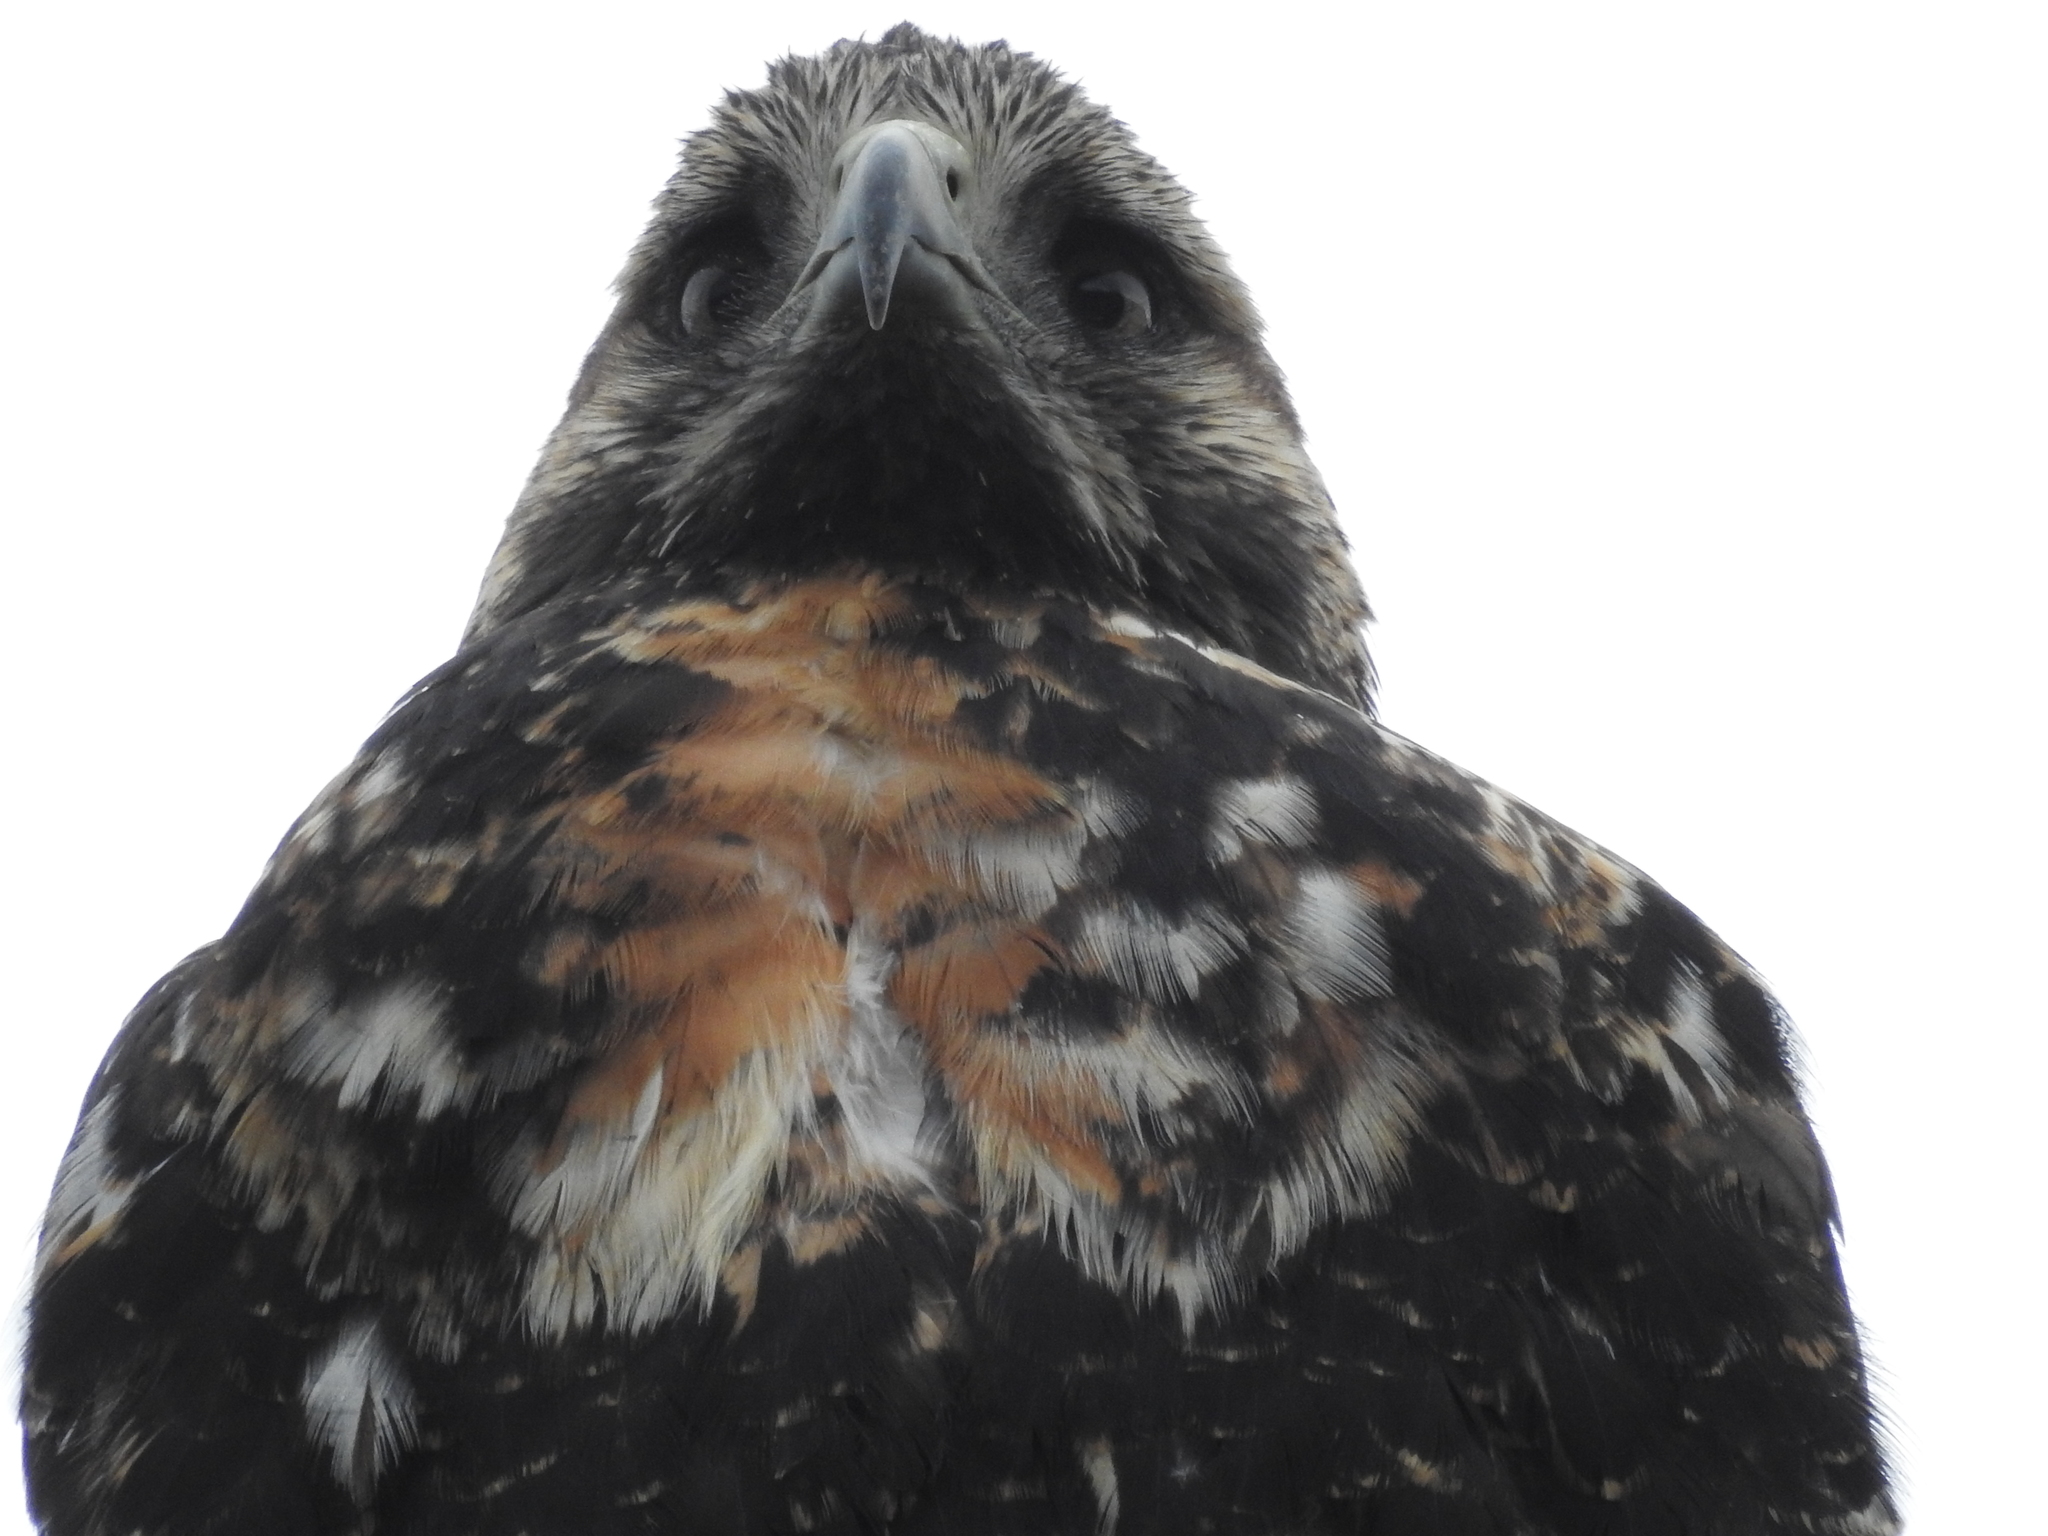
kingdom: Animalia
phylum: Chordata
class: Aves
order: Accipitriformes
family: Accipitridae
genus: Geranoaetus
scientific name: Geranoaetus melanoleucus
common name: Black-chested buzzard-eagle
